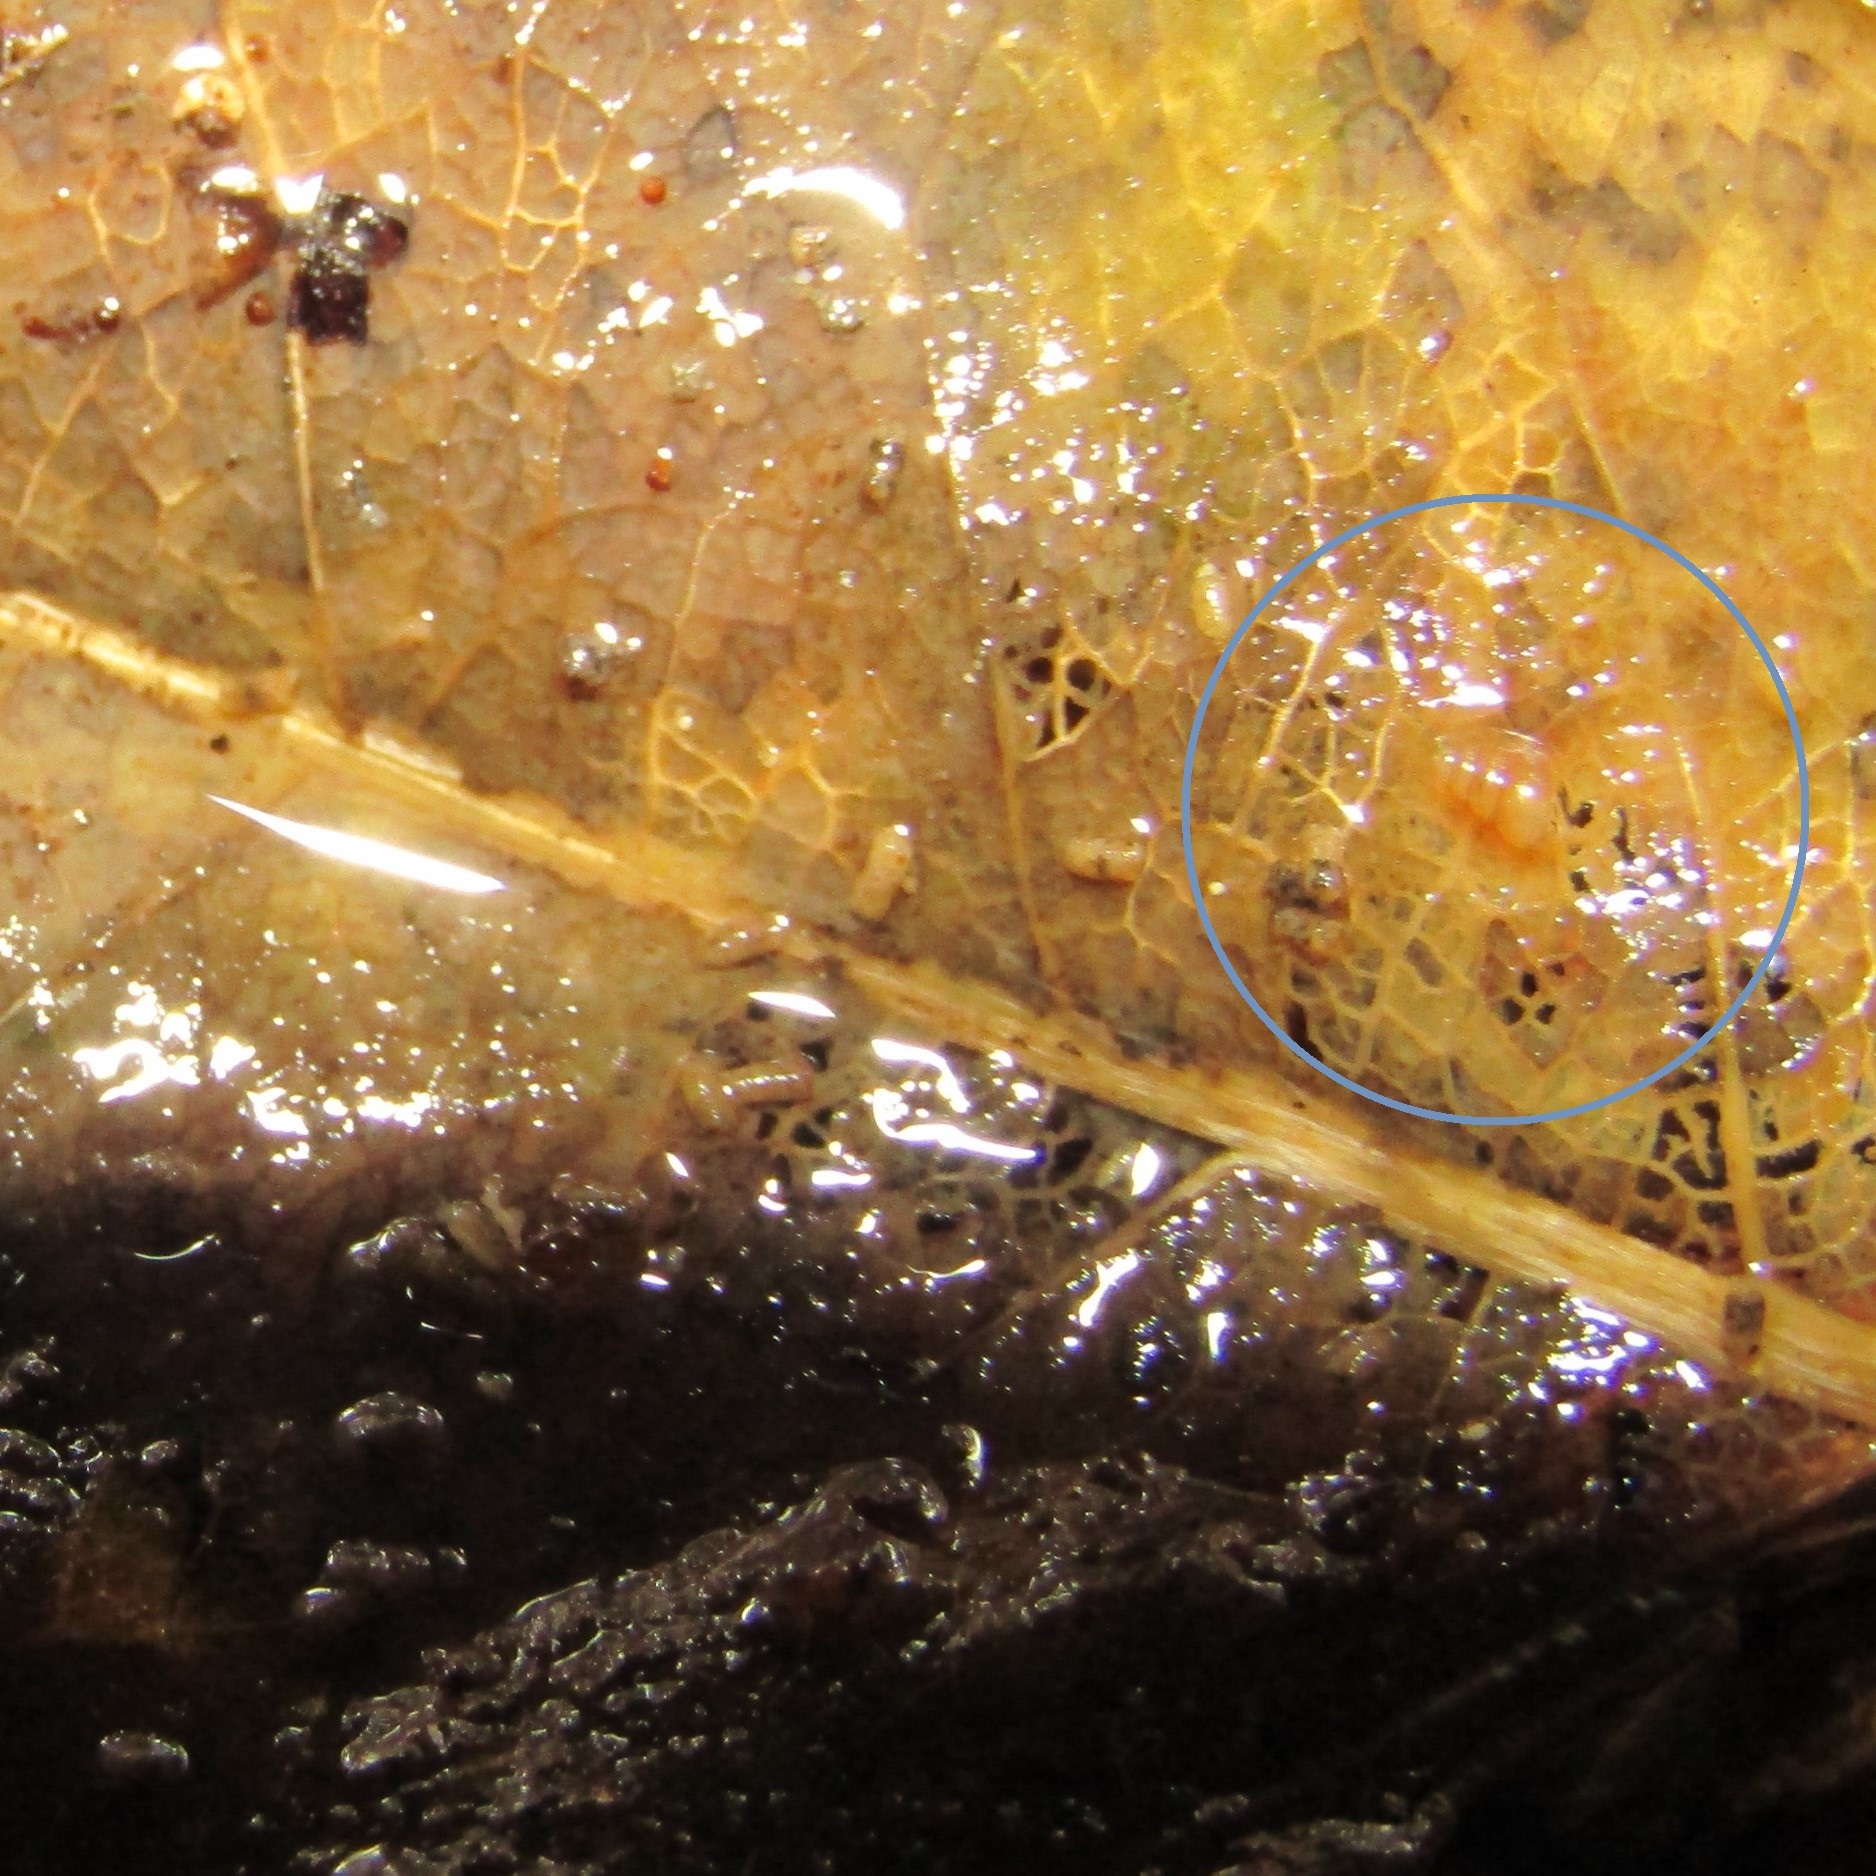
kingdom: Animalia
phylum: Mollusca
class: Gastropoda
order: Littorinimorpha
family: Tateidae
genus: Potamopyrgus
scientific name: Potamopyrgus oppidanus
